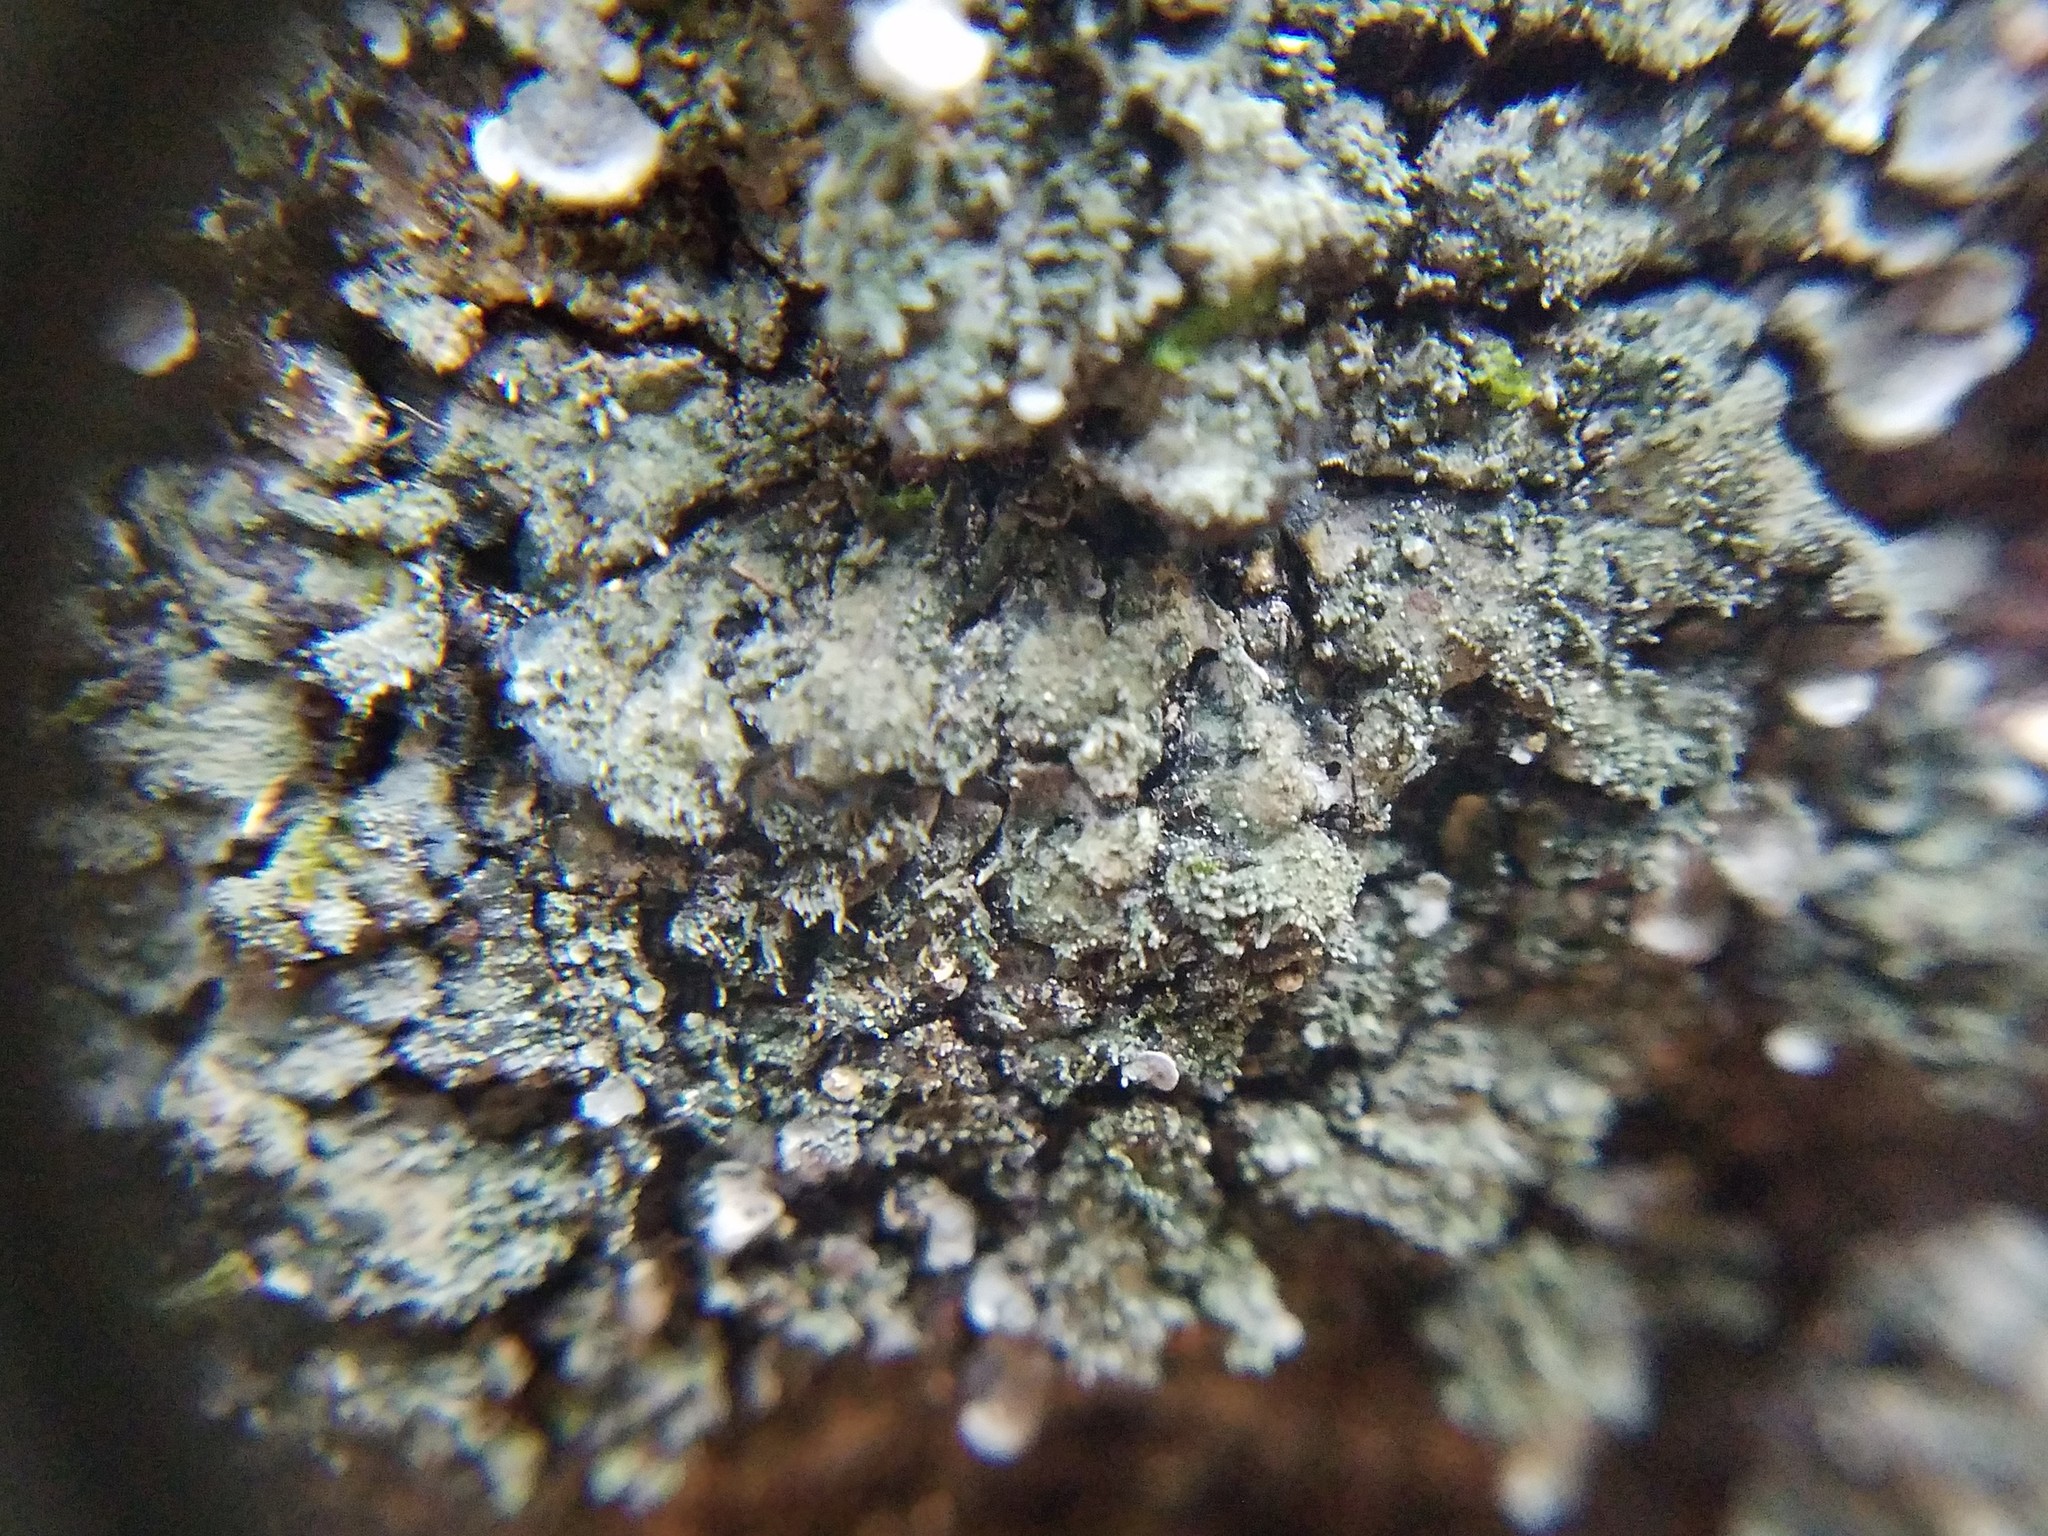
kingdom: Fungi
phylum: Ascomycota
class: Lecanoromycetes
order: Peltigerales
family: Coccocarpiaceae
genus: Coccocarpia
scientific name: Coccocarpia palmicola
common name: Salted shell lichen
